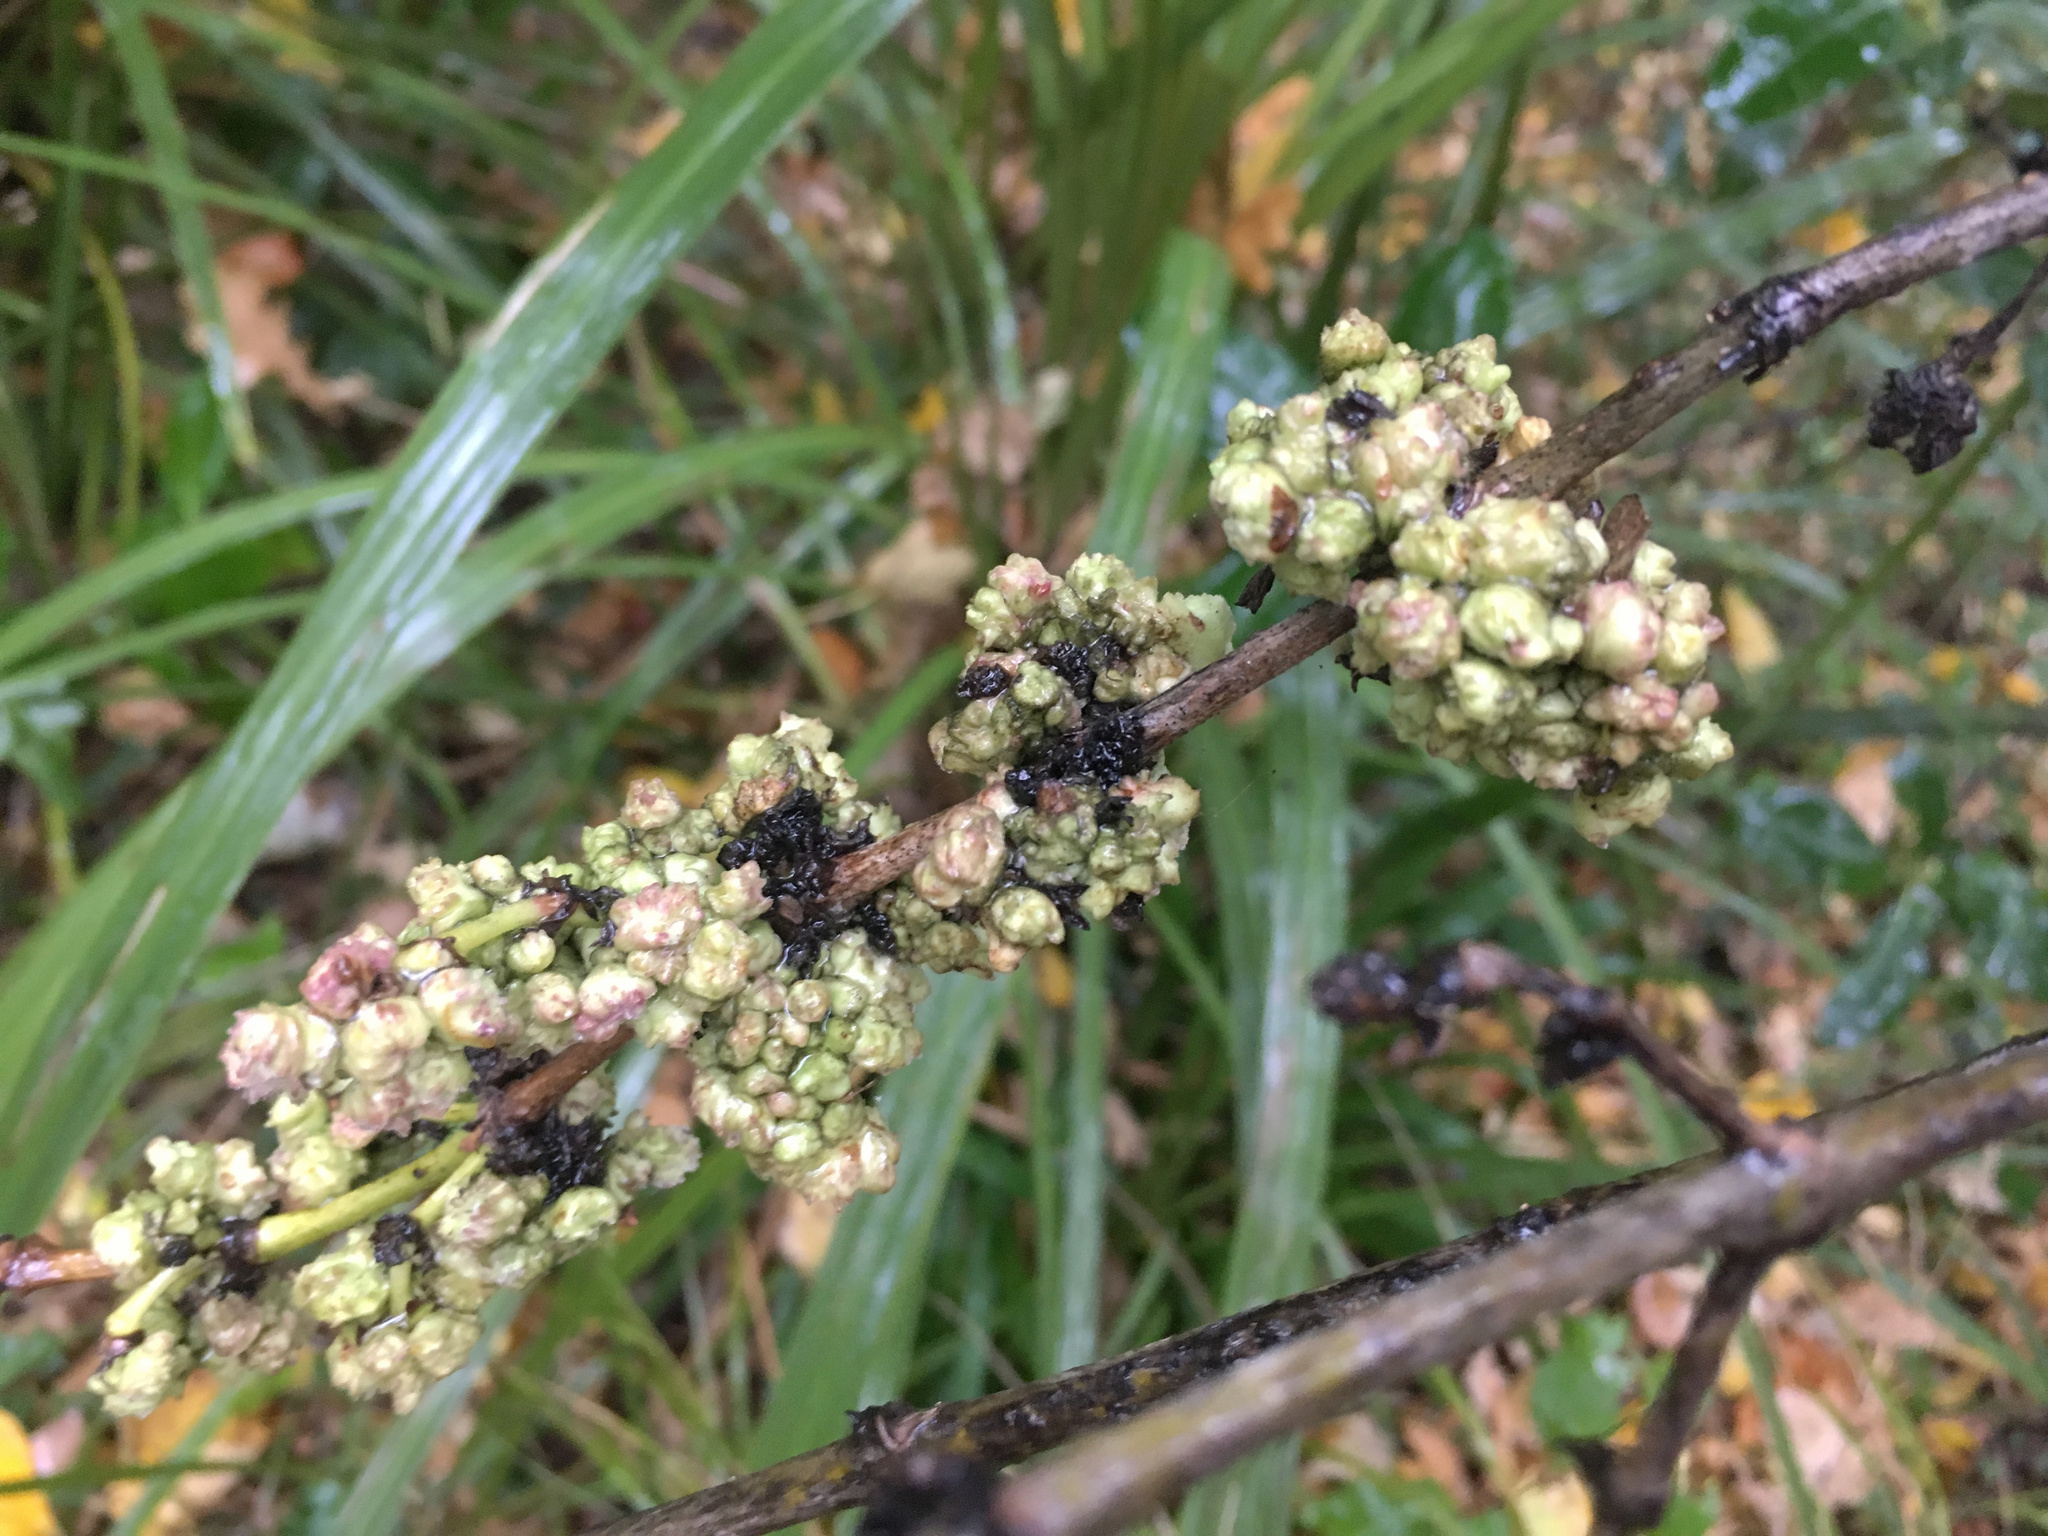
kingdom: Animalia
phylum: Arthropoda
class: Arachnida
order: Trombidiformes
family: Eriophyidae
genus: Acalitus
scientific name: Acalitus
